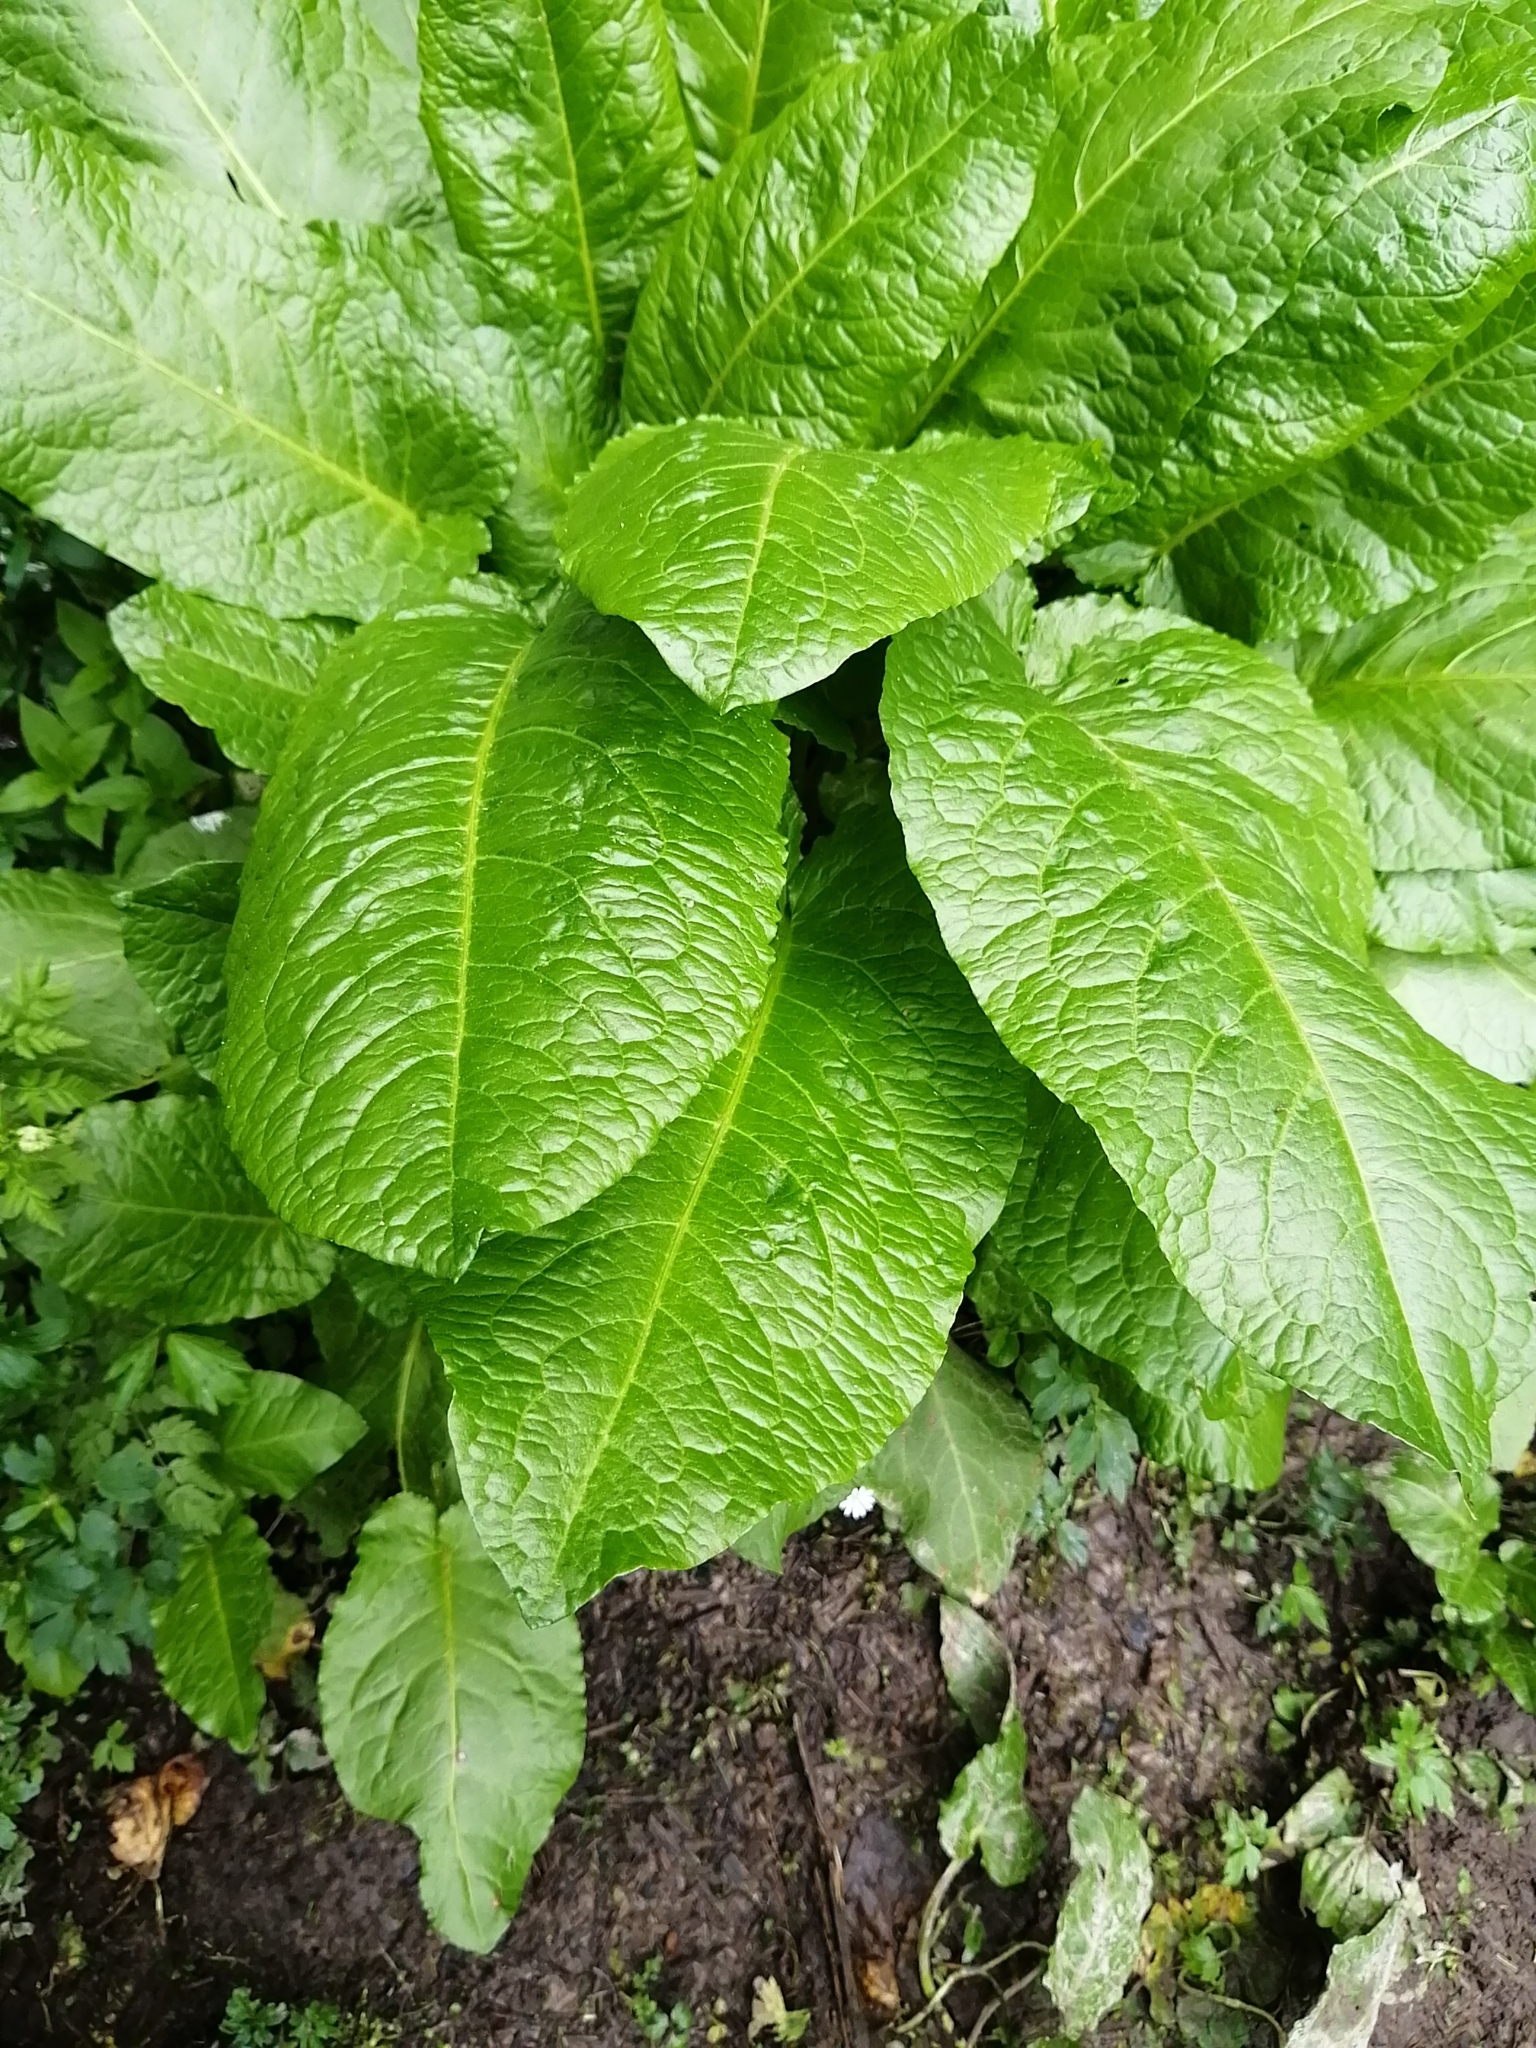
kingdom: Plantae
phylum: Tracheophyta
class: Magnoliopsida
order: Caryophyllales
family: Polygonaceae
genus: Rumex
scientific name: Rumex obtusifolius
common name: Bitter dock
